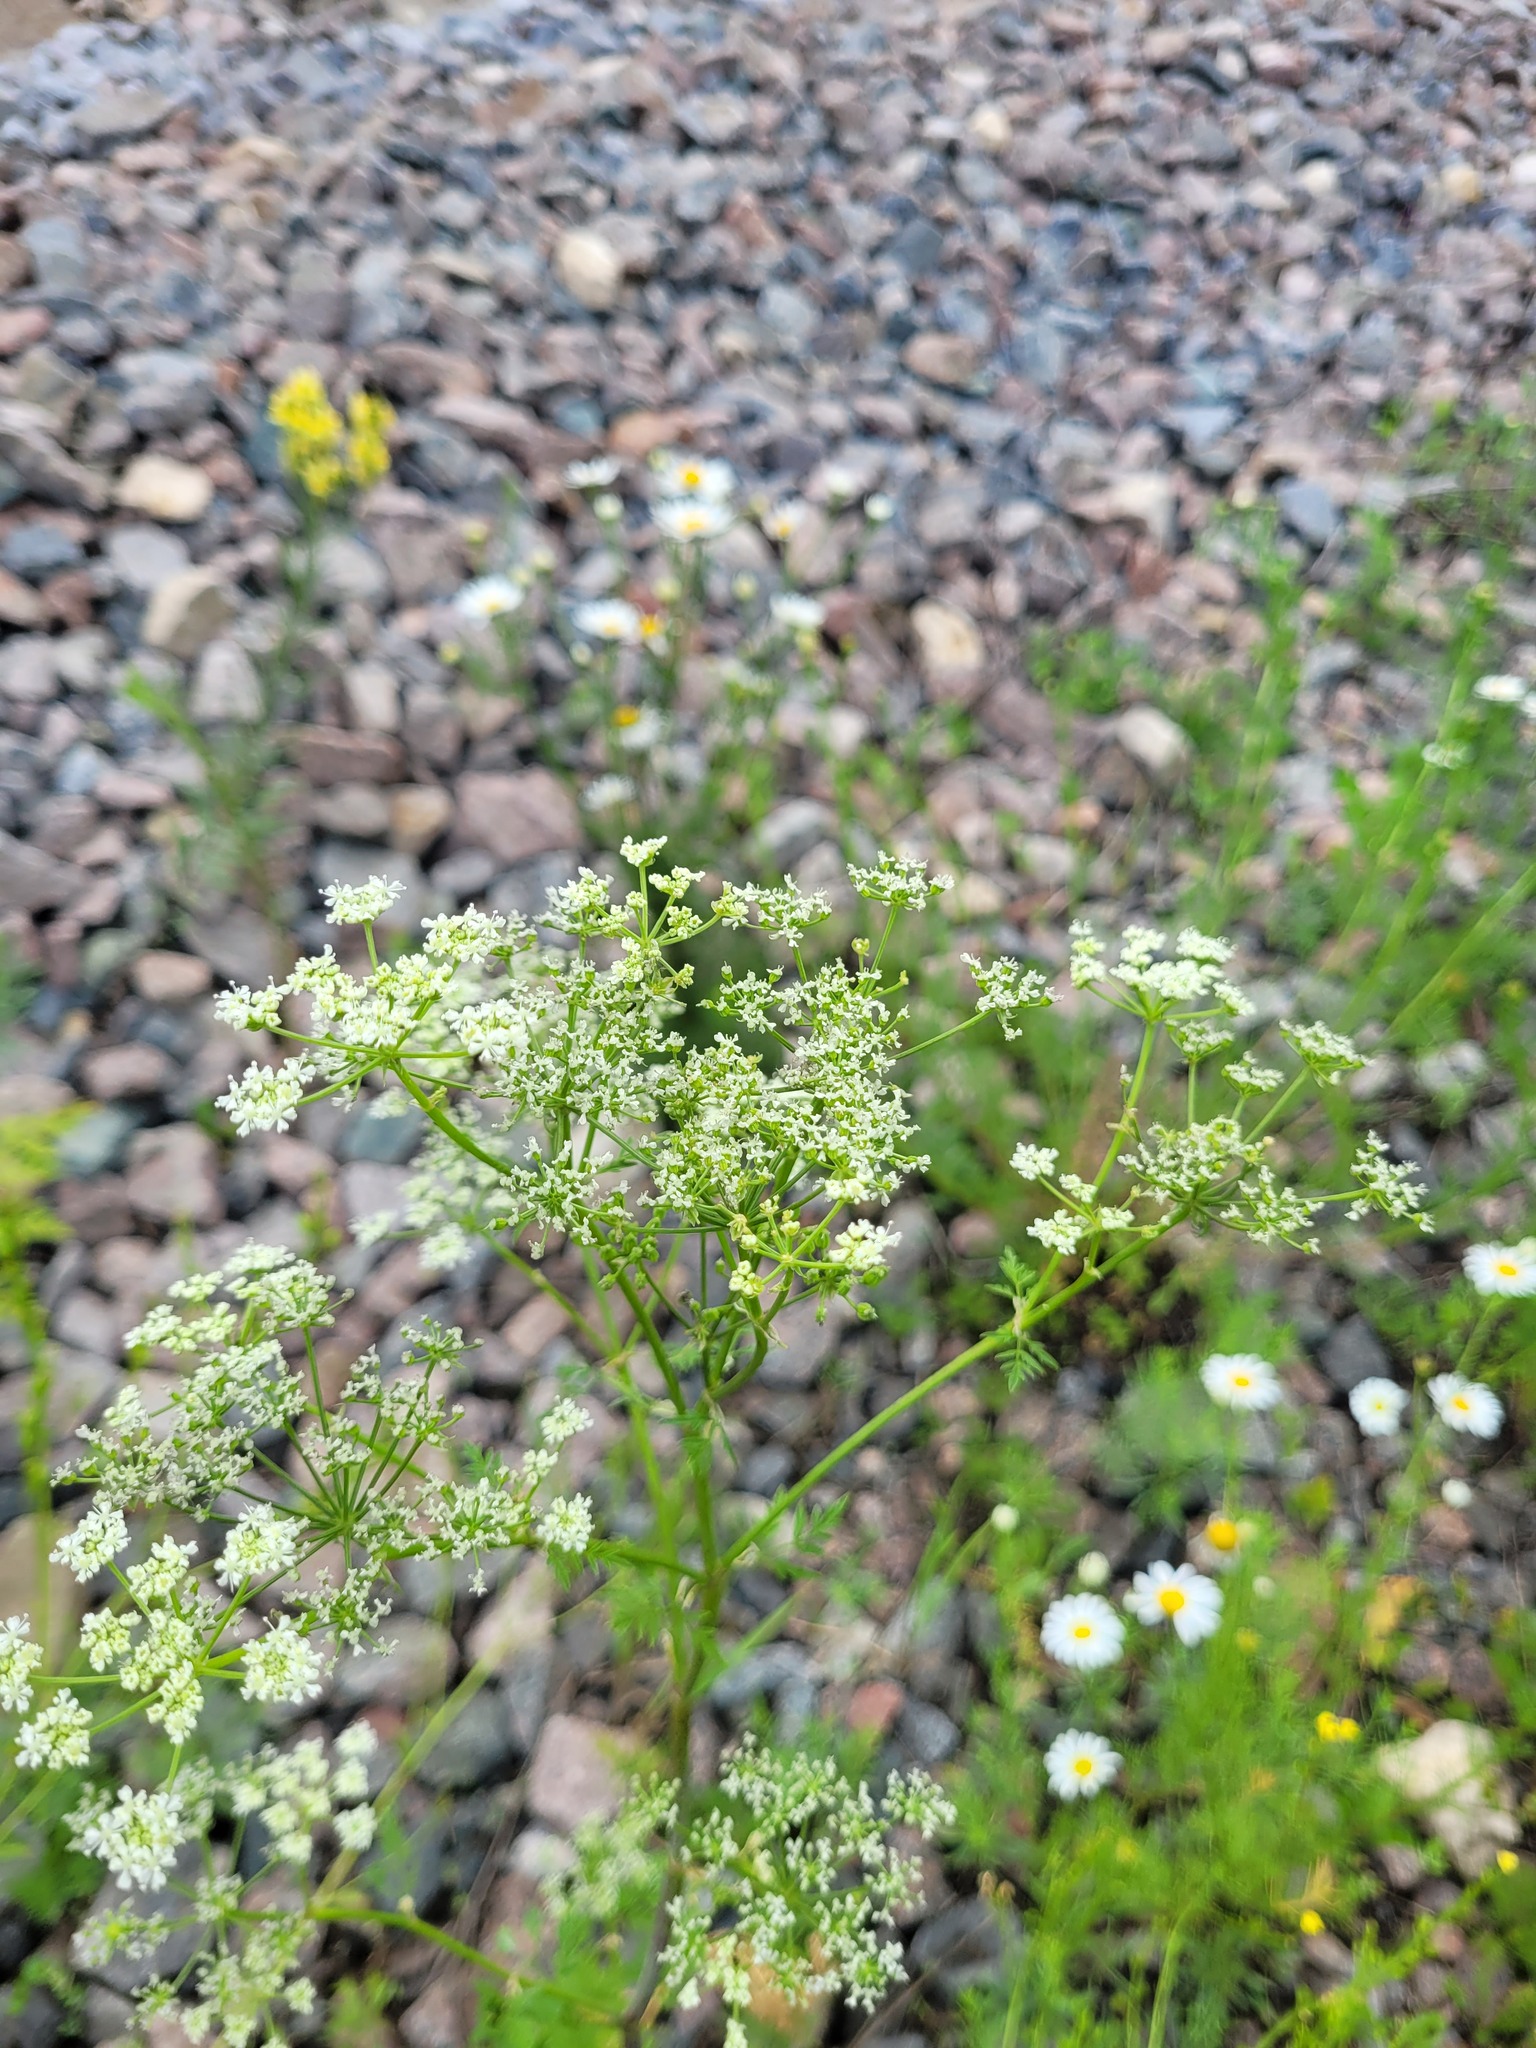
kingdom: Plantae
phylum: Tracheophyta
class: Magnoliopsida
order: Apiales
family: Apiaceae
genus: Conium
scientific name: Conium maculatum
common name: Hemlock
